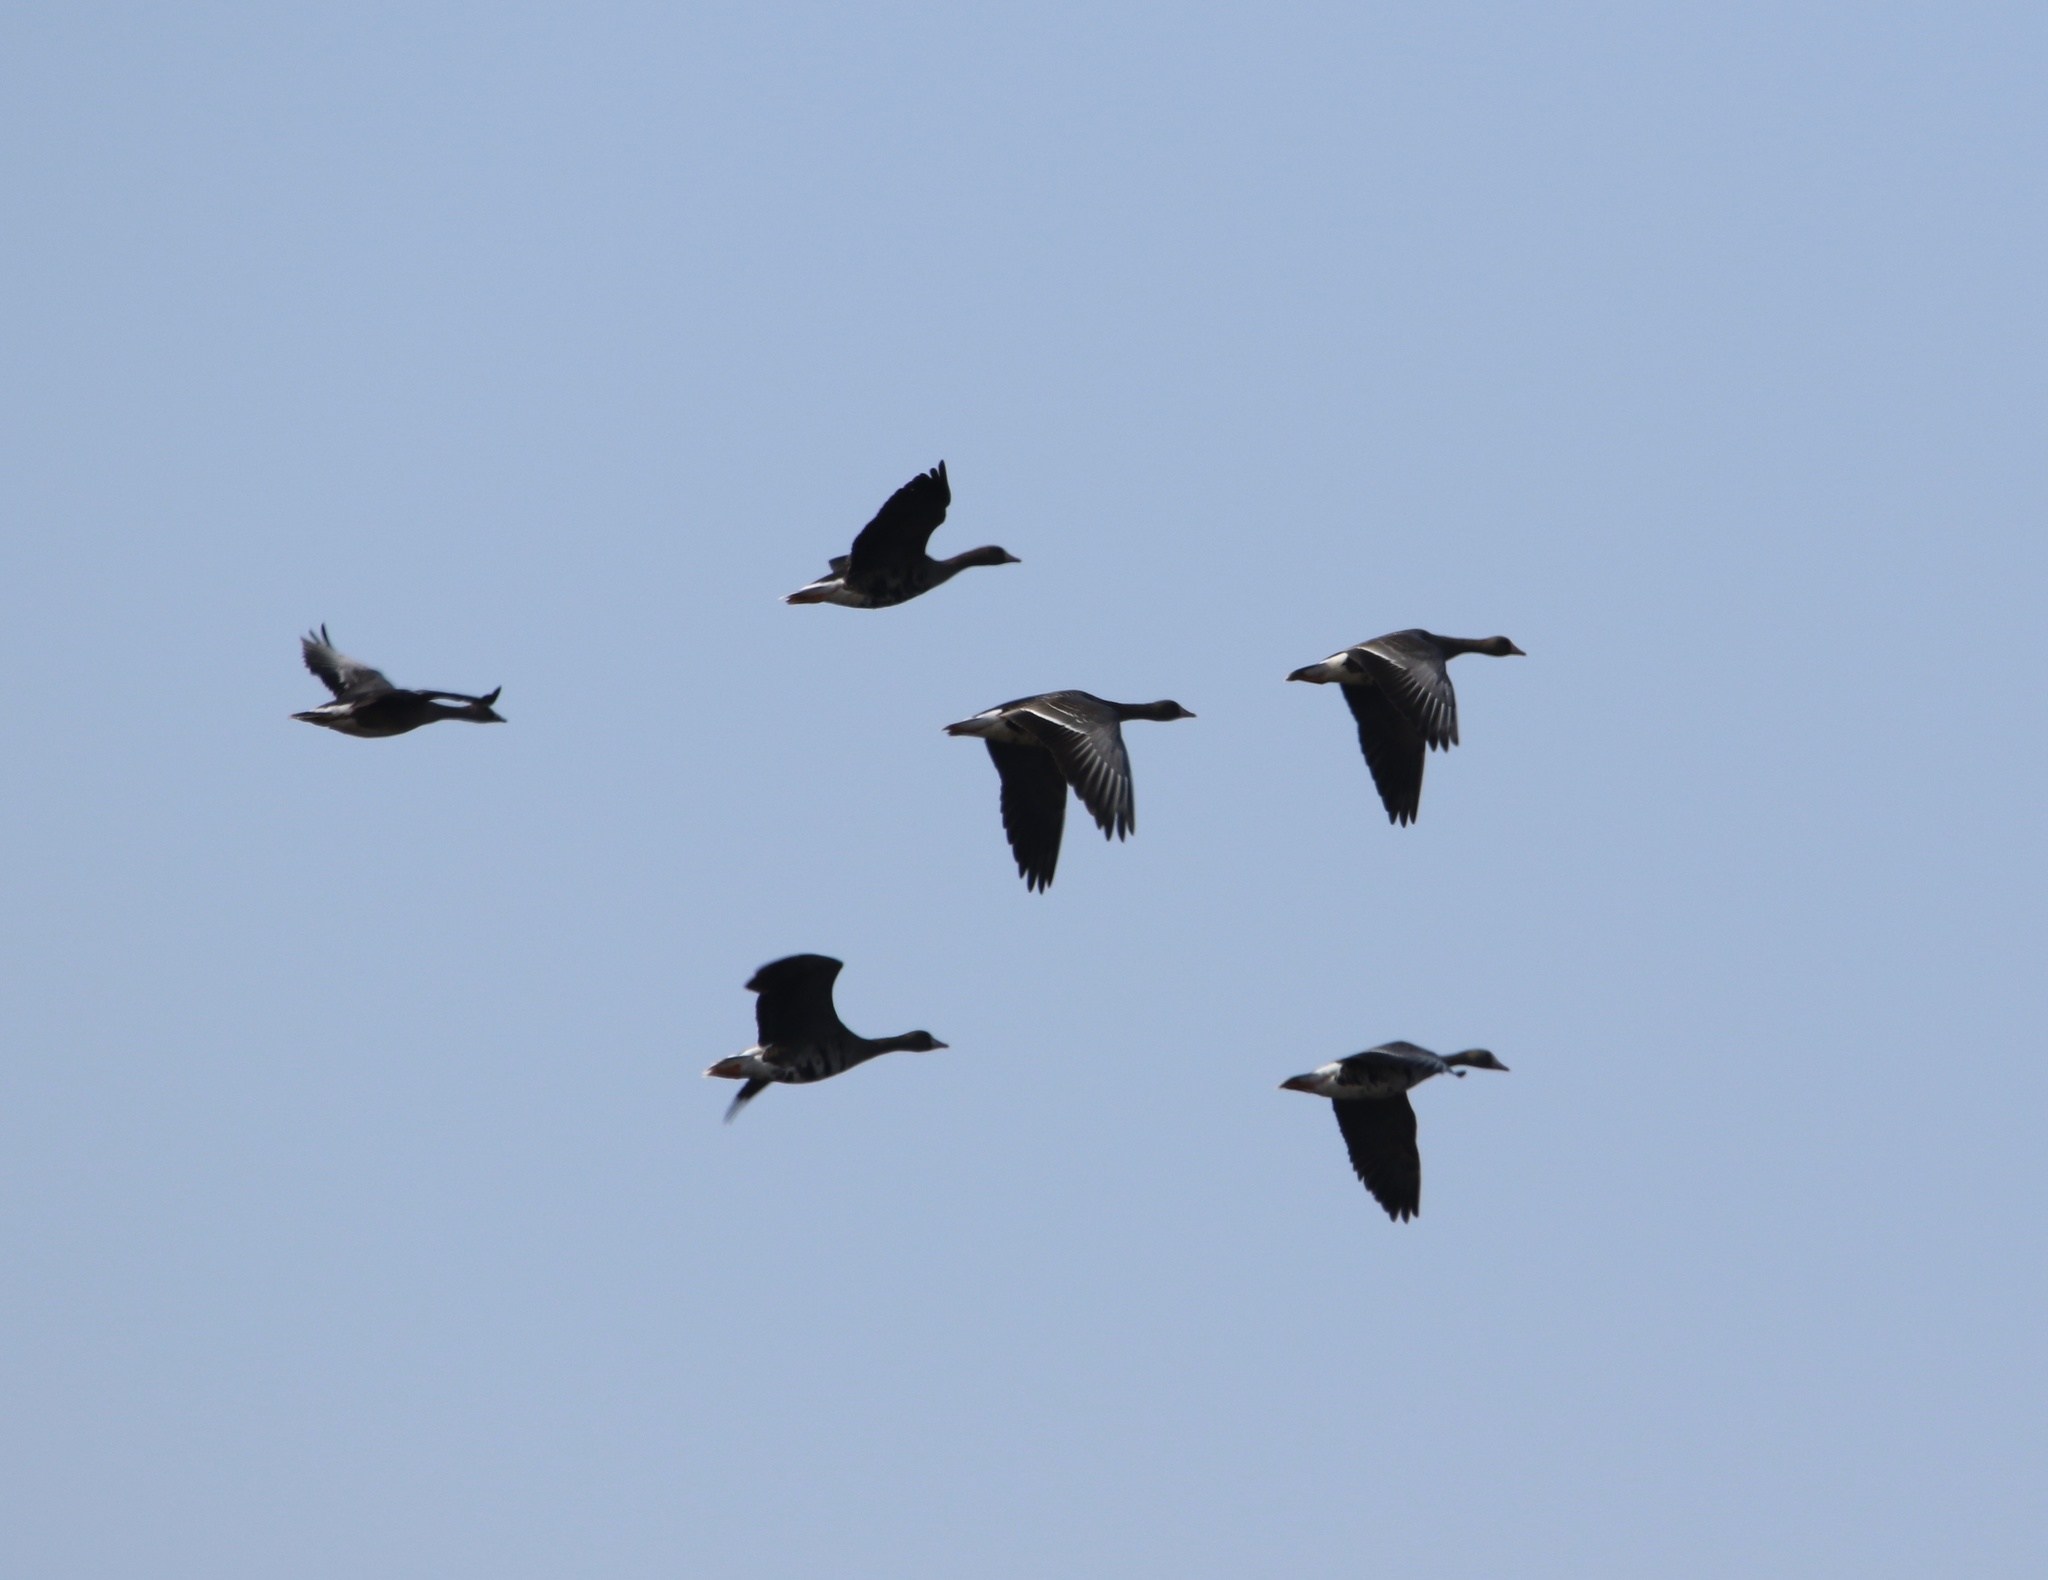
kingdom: Animalia
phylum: Chordata
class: Aves
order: Anseriformes
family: Anatidae
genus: Anser
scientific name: Anser albifrons
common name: Greater white-fronted goose
